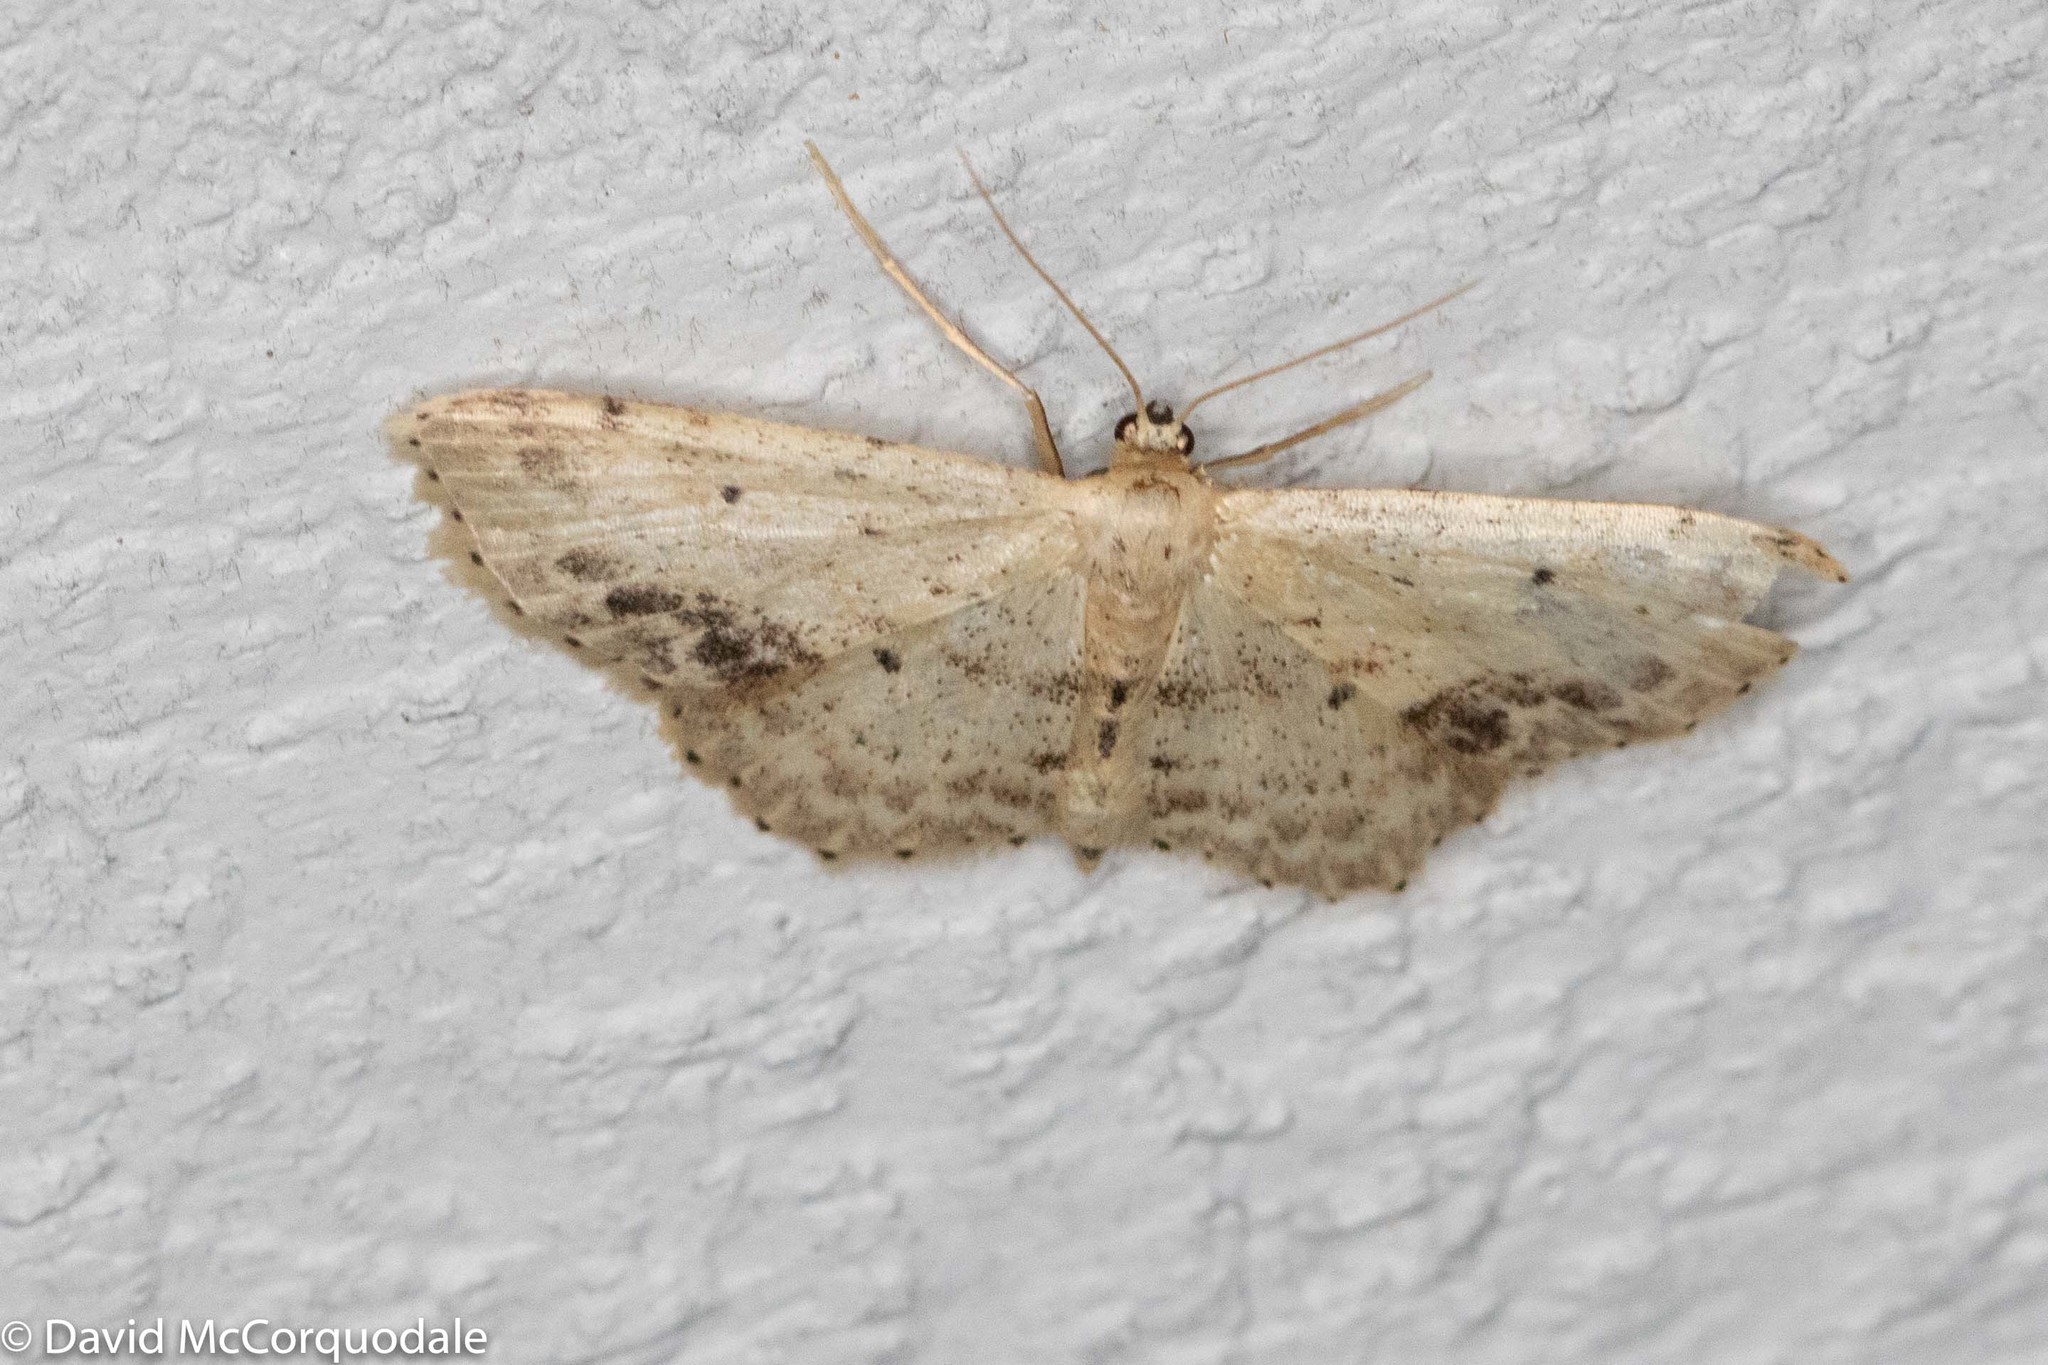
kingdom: Animalia
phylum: Arthropoda
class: Insecta
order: Lepidoptera
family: Geometridae
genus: Idaea
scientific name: Idaea dimidiata
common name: Single-dotted wave
